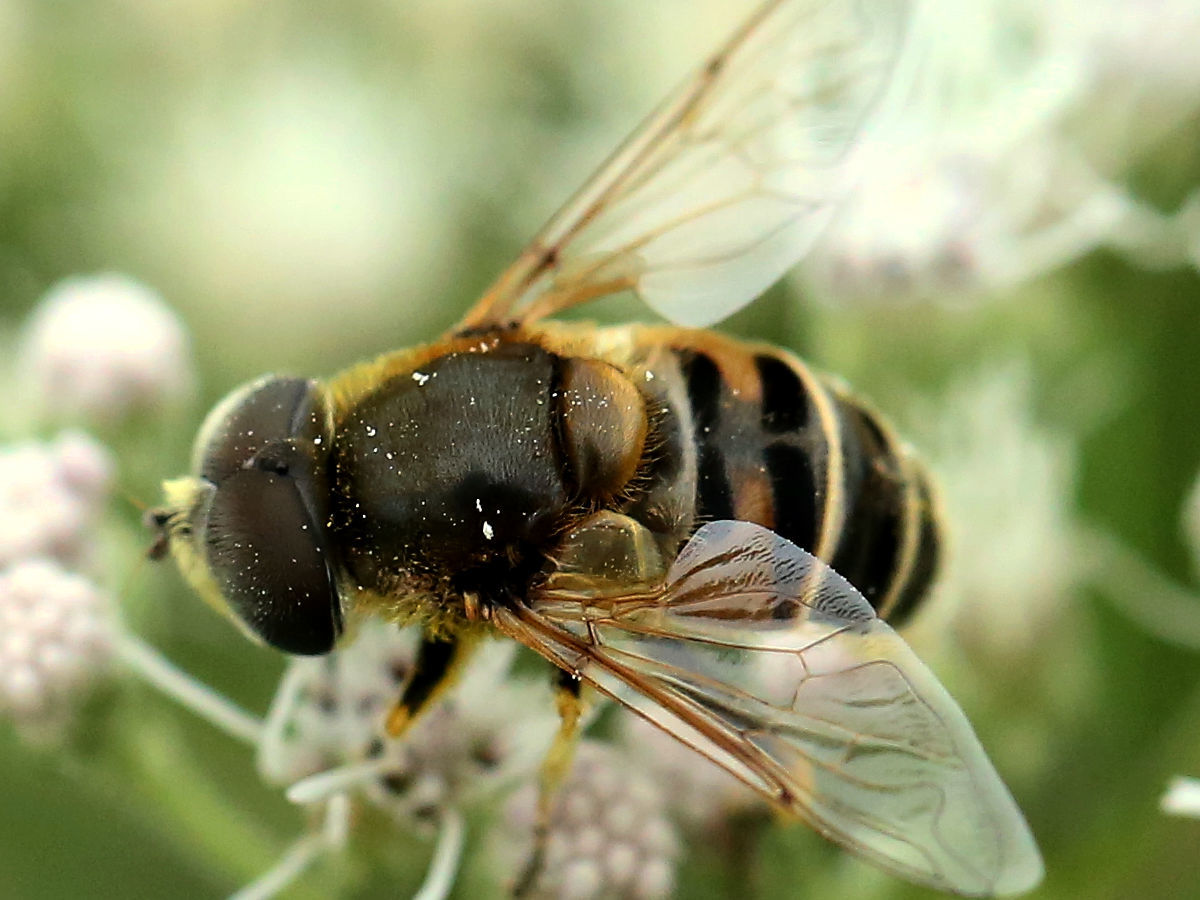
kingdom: Animalia
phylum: Arthropoda
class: Insecta
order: Diptera
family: Syrphidae
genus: Eristalis
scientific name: Eristalis stipator
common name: Yellow-shouldered drone fly
